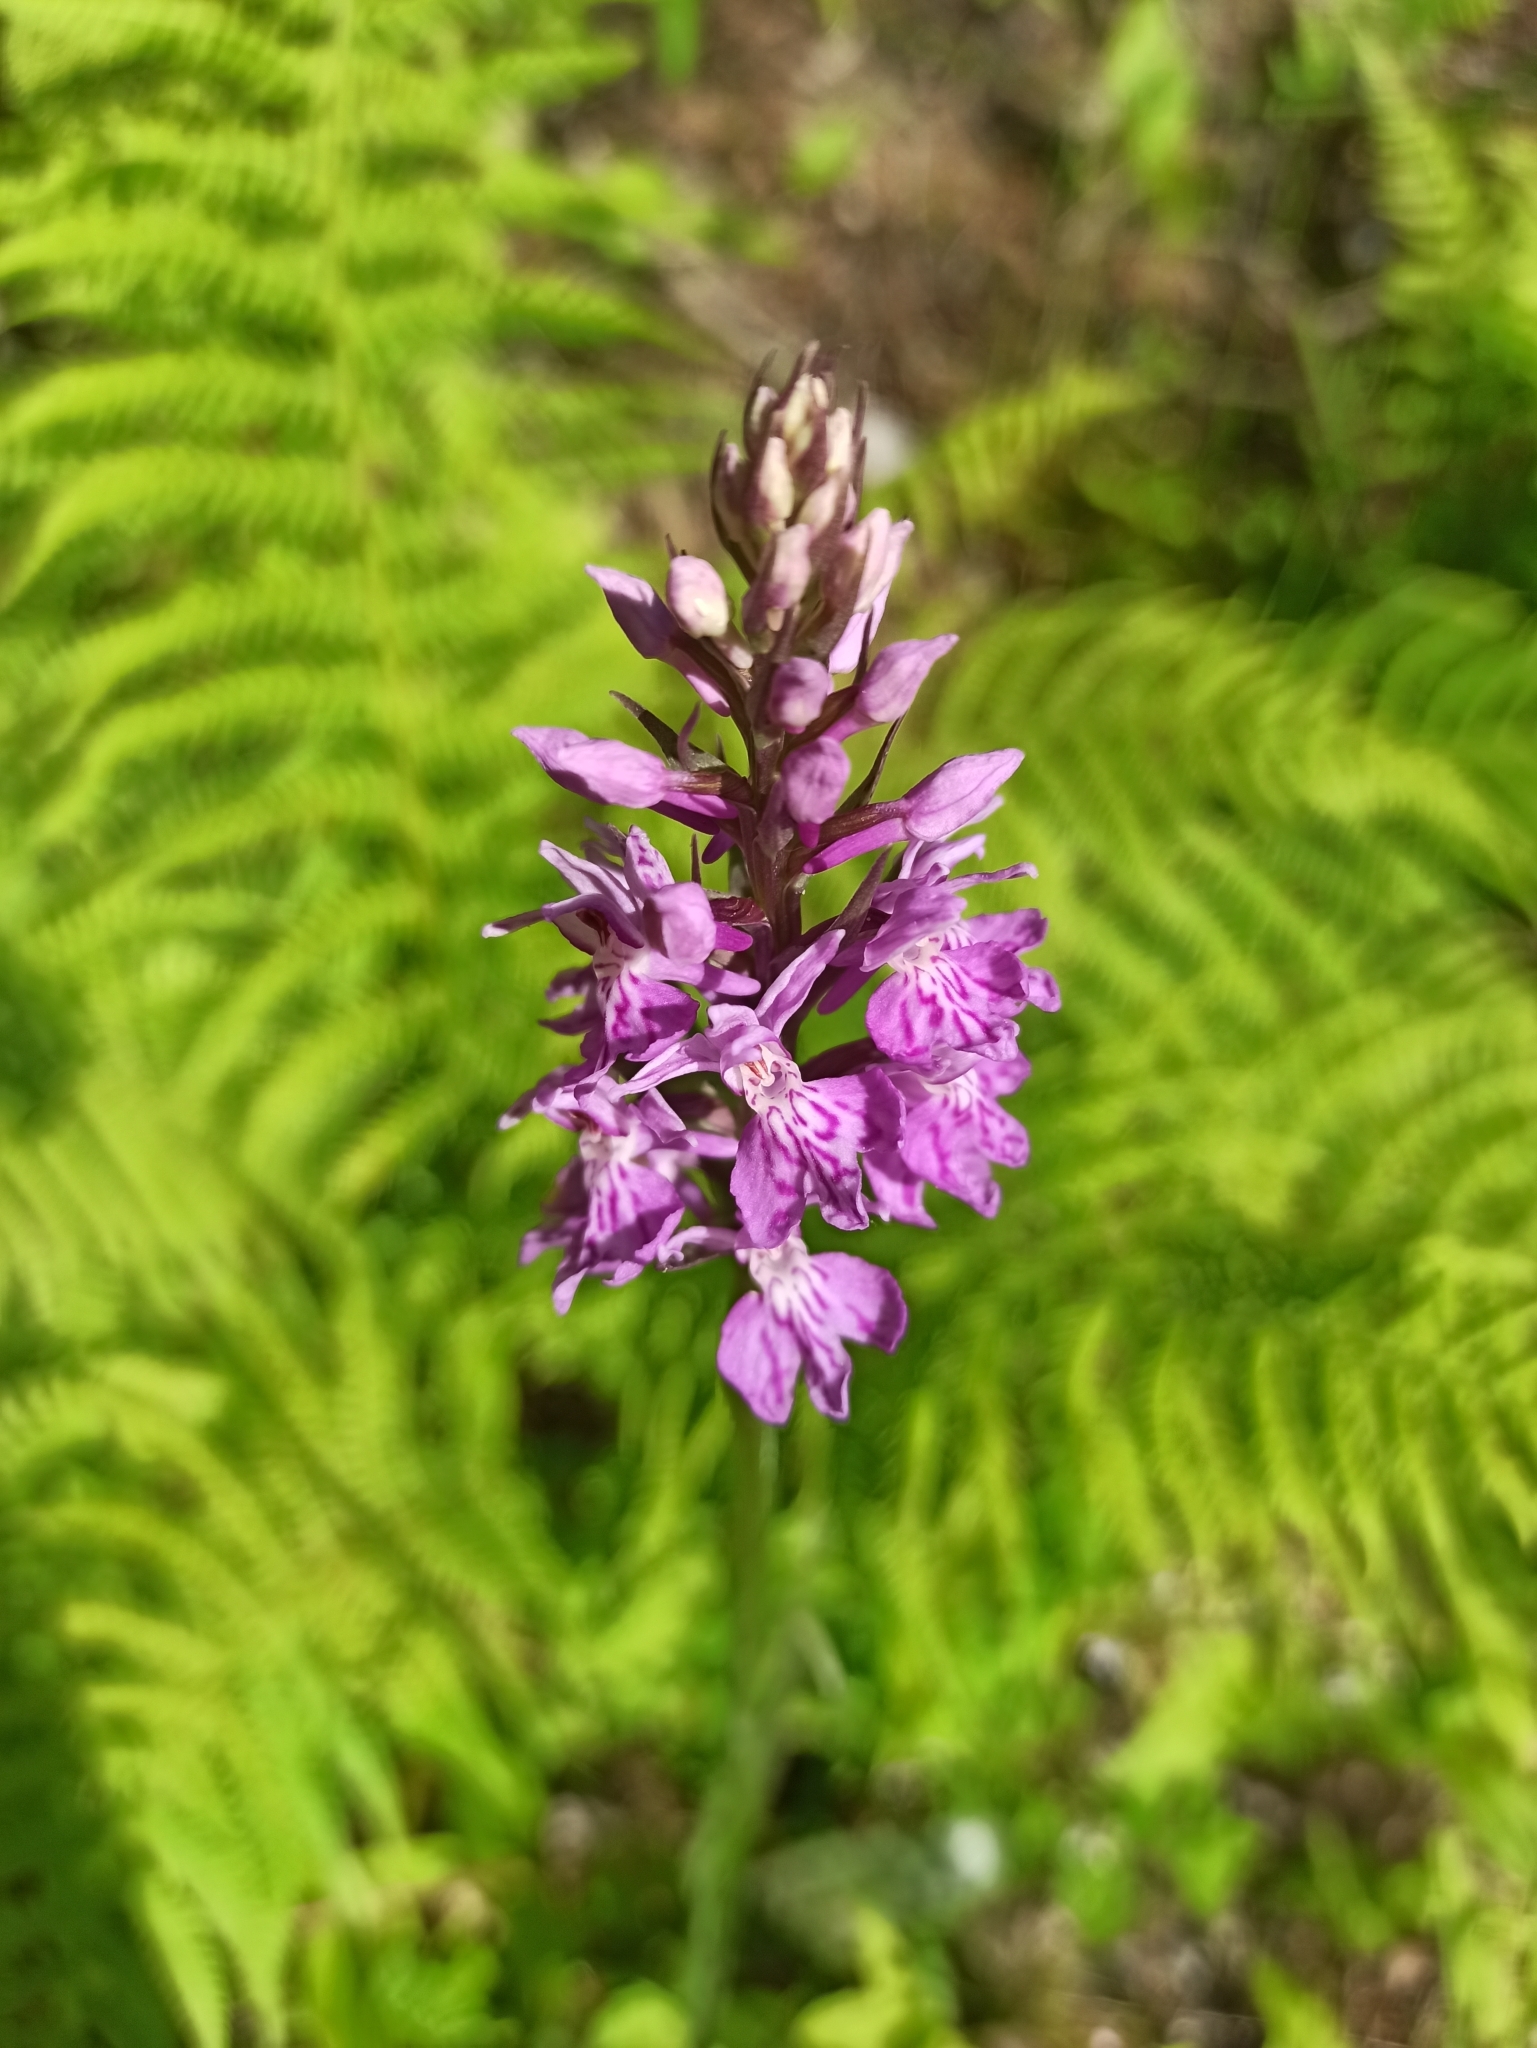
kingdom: Plantae
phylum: Tracheophyta
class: Liliopsida
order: Asparagales
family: Orchidaceae
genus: Dactylorhiza
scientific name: Dactylorhiza maculata
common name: Heath spotted-orchid
